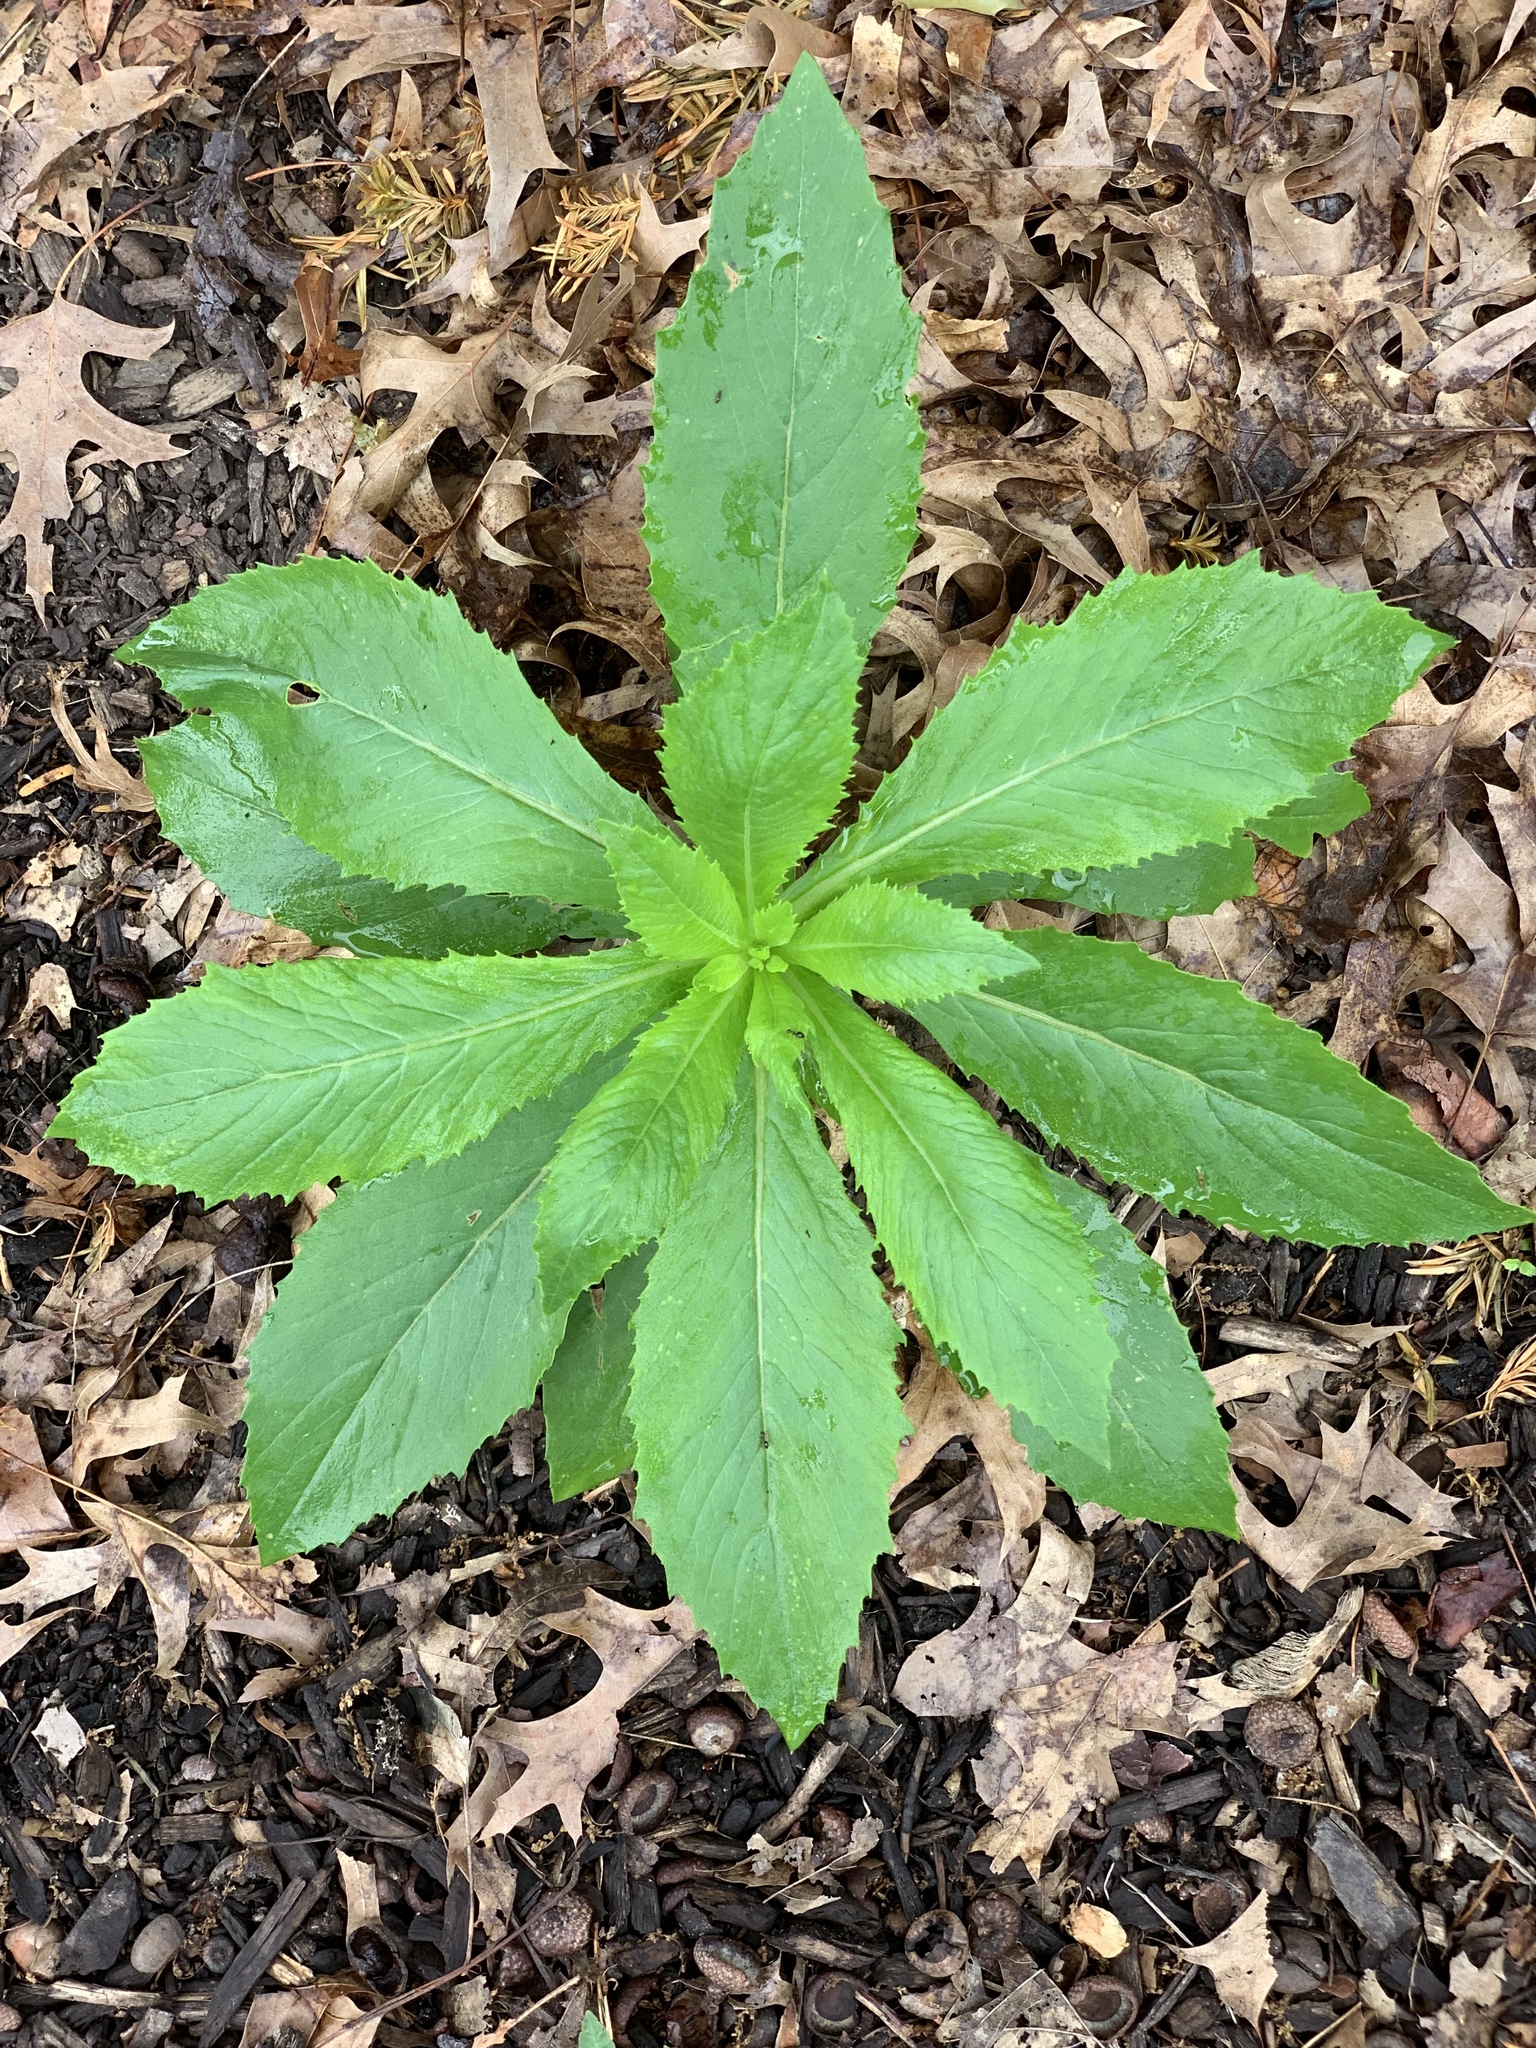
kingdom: Plantae
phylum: Tracheophyta
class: Magnoliopsida
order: Asterales
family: Asteraceae
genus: Erechtites
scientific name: Erechtites hieraciifolius
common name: American burnweed
